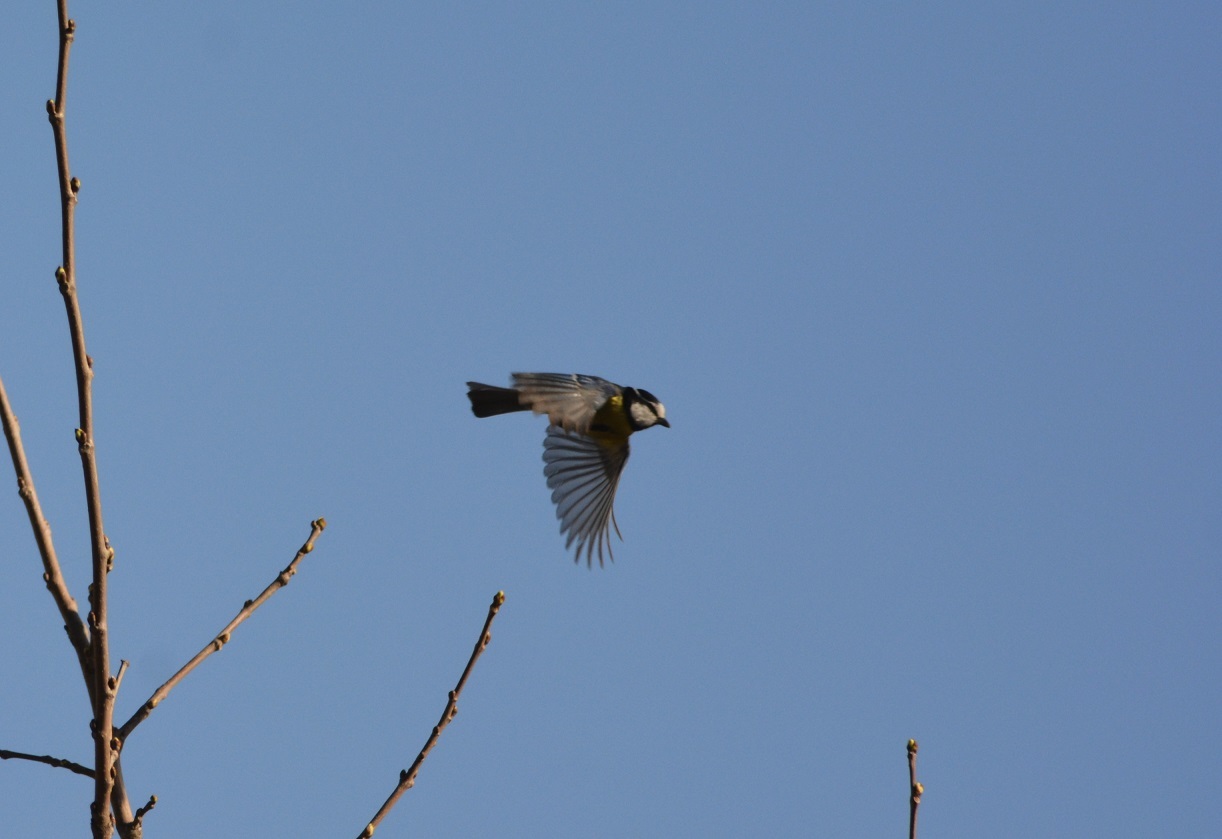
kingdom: Animalia
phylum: Chordata
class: Aves
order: Passeriformes
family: Paridae
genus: Cyanistes
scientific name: Cyanistes teneriffae
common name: African blue tit
